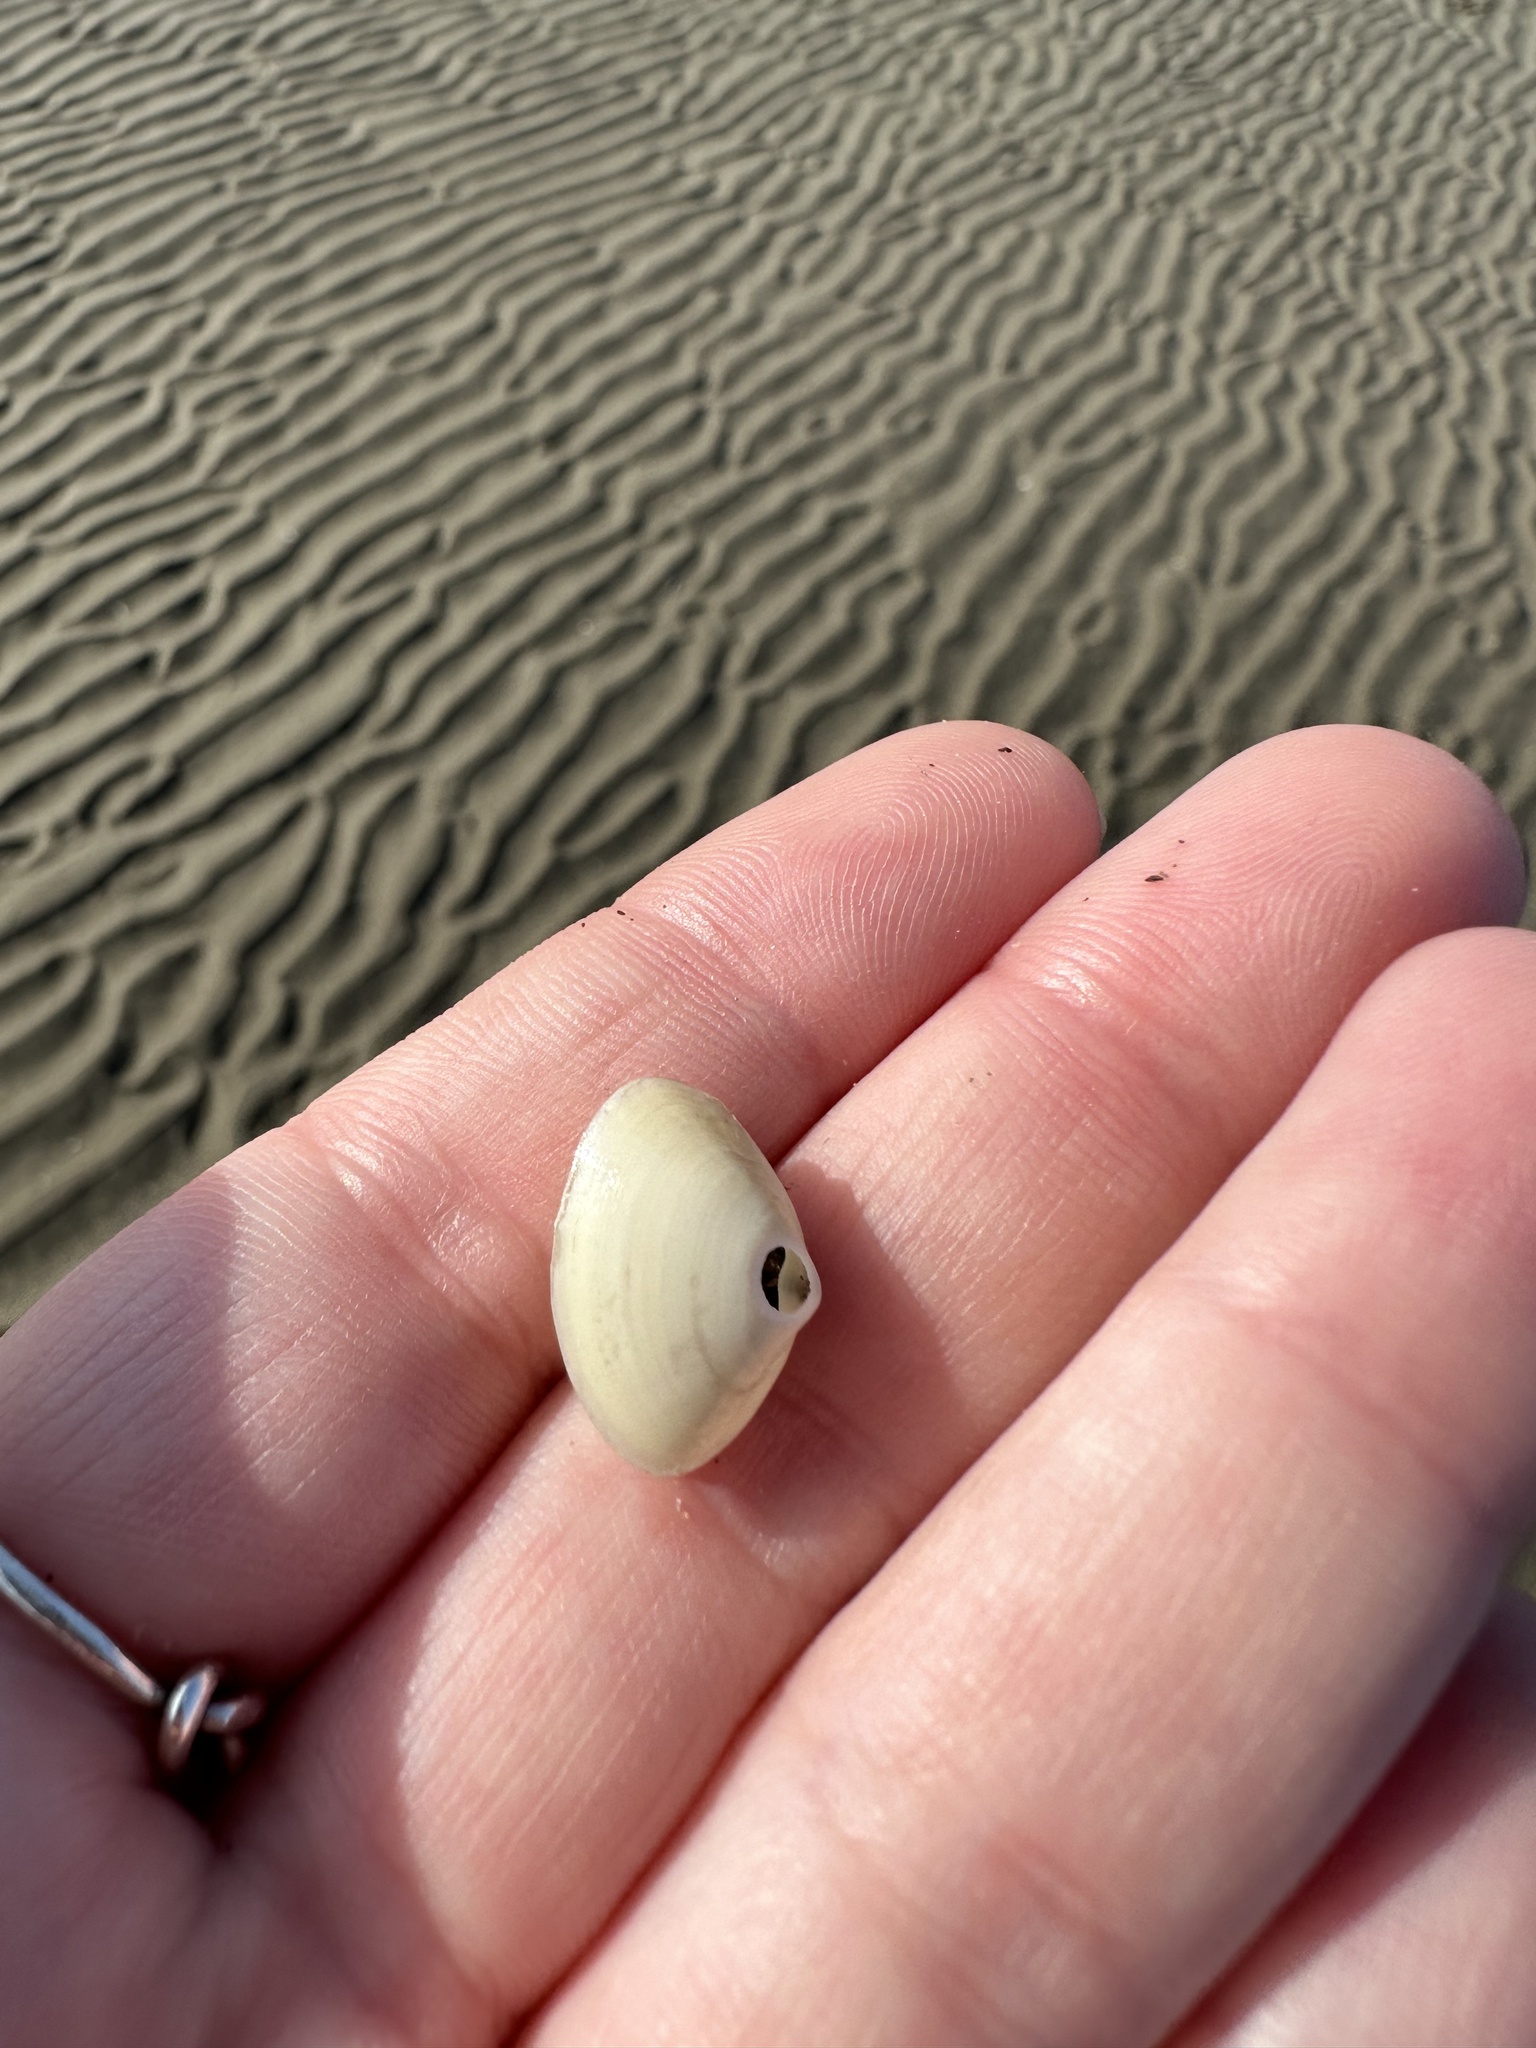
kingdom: Animalia
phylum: Mollusca
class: Bivalvia
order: Venerida
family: Mactridae
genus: Spisula
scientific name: Spisula solidissima
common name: Atlantic surf clam
